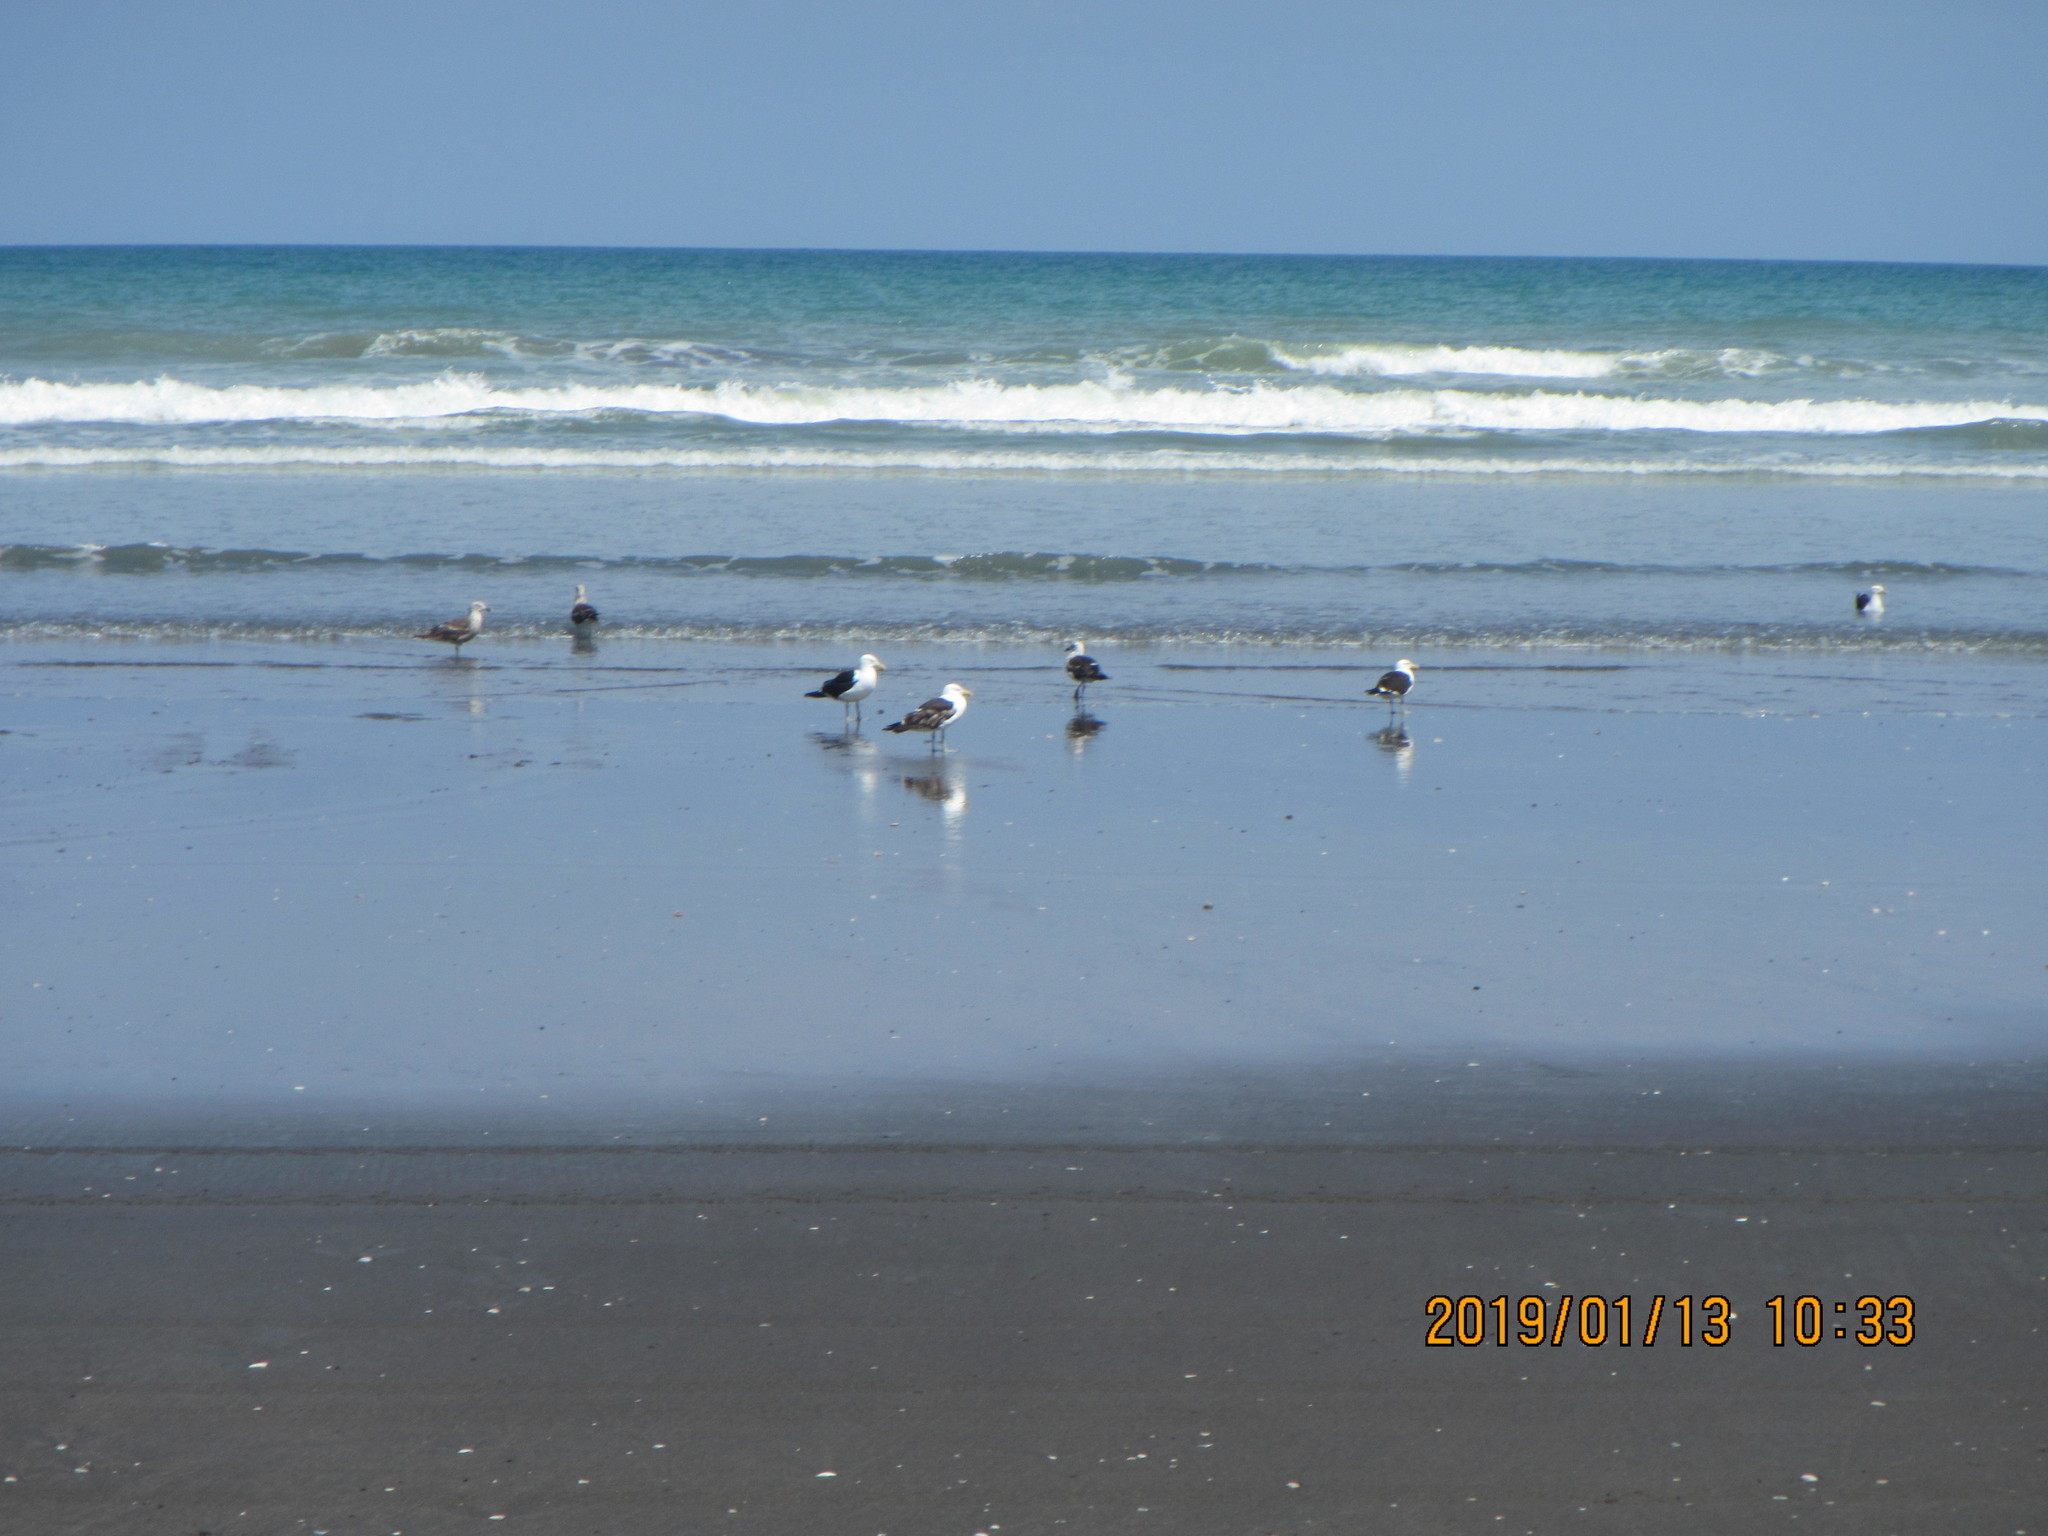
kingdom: Animalia
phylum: Chordata
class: Aves
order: Charadriiformes
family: Laridae
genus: Larus
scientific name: Larus dominicanus
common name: Kelp gull
